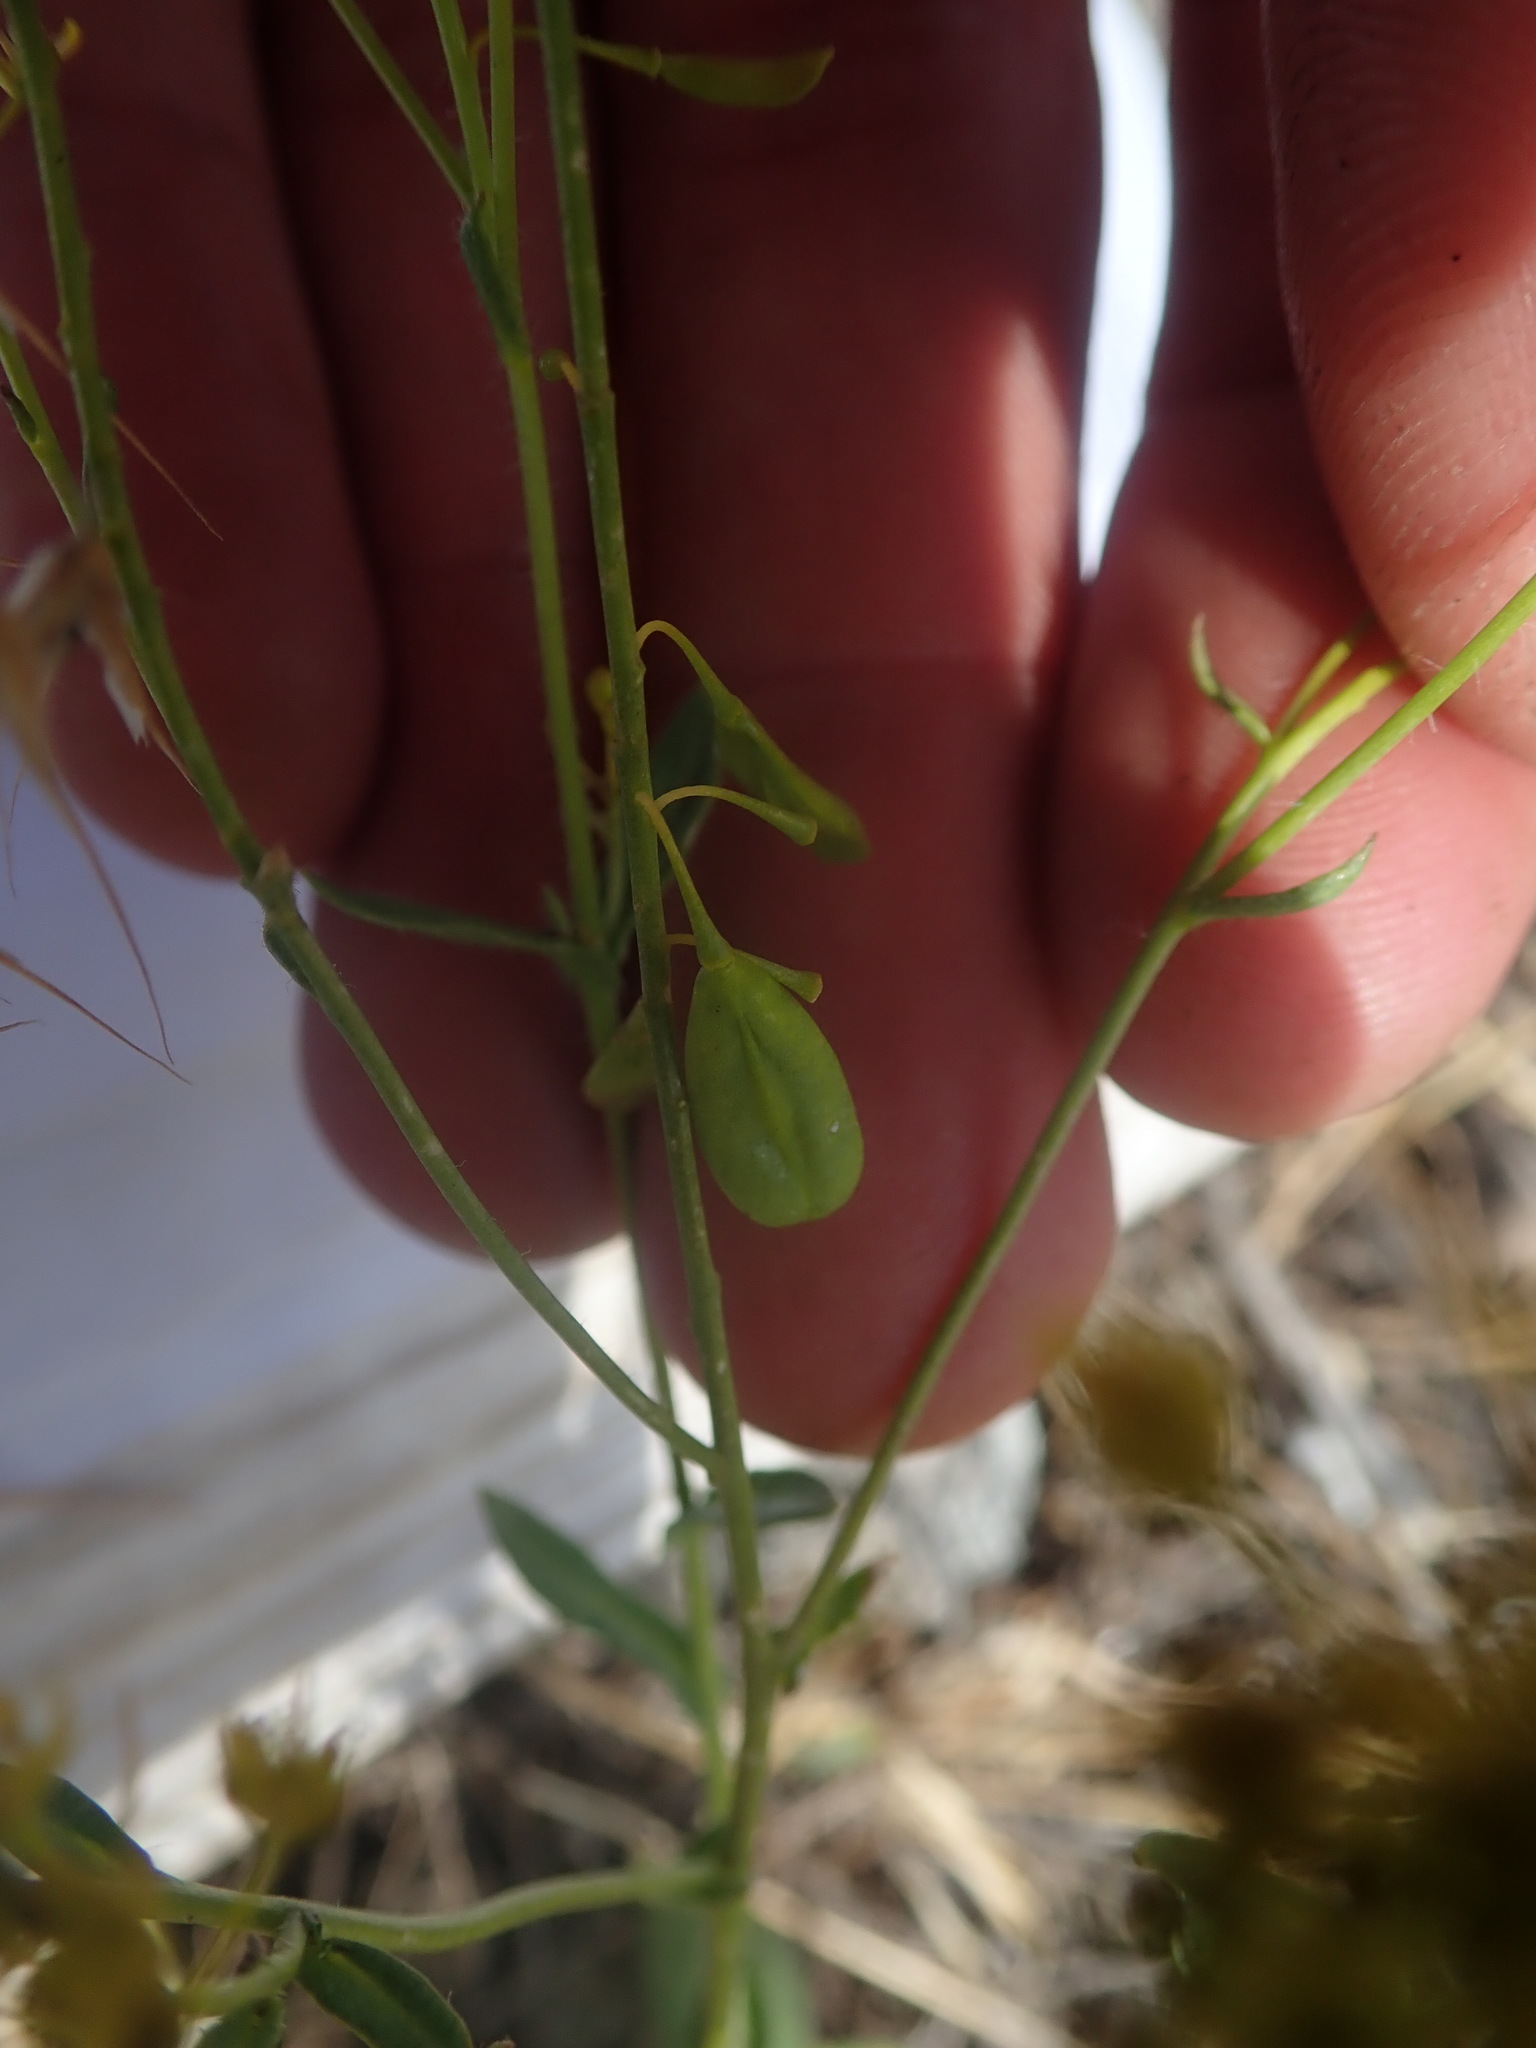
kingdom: Plantae
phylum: Tracheophyta
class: Magnoliopsida
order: Brassicales
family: Brassicaceae
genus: Isatis
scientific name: Isatis tinctoria
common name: Woad
